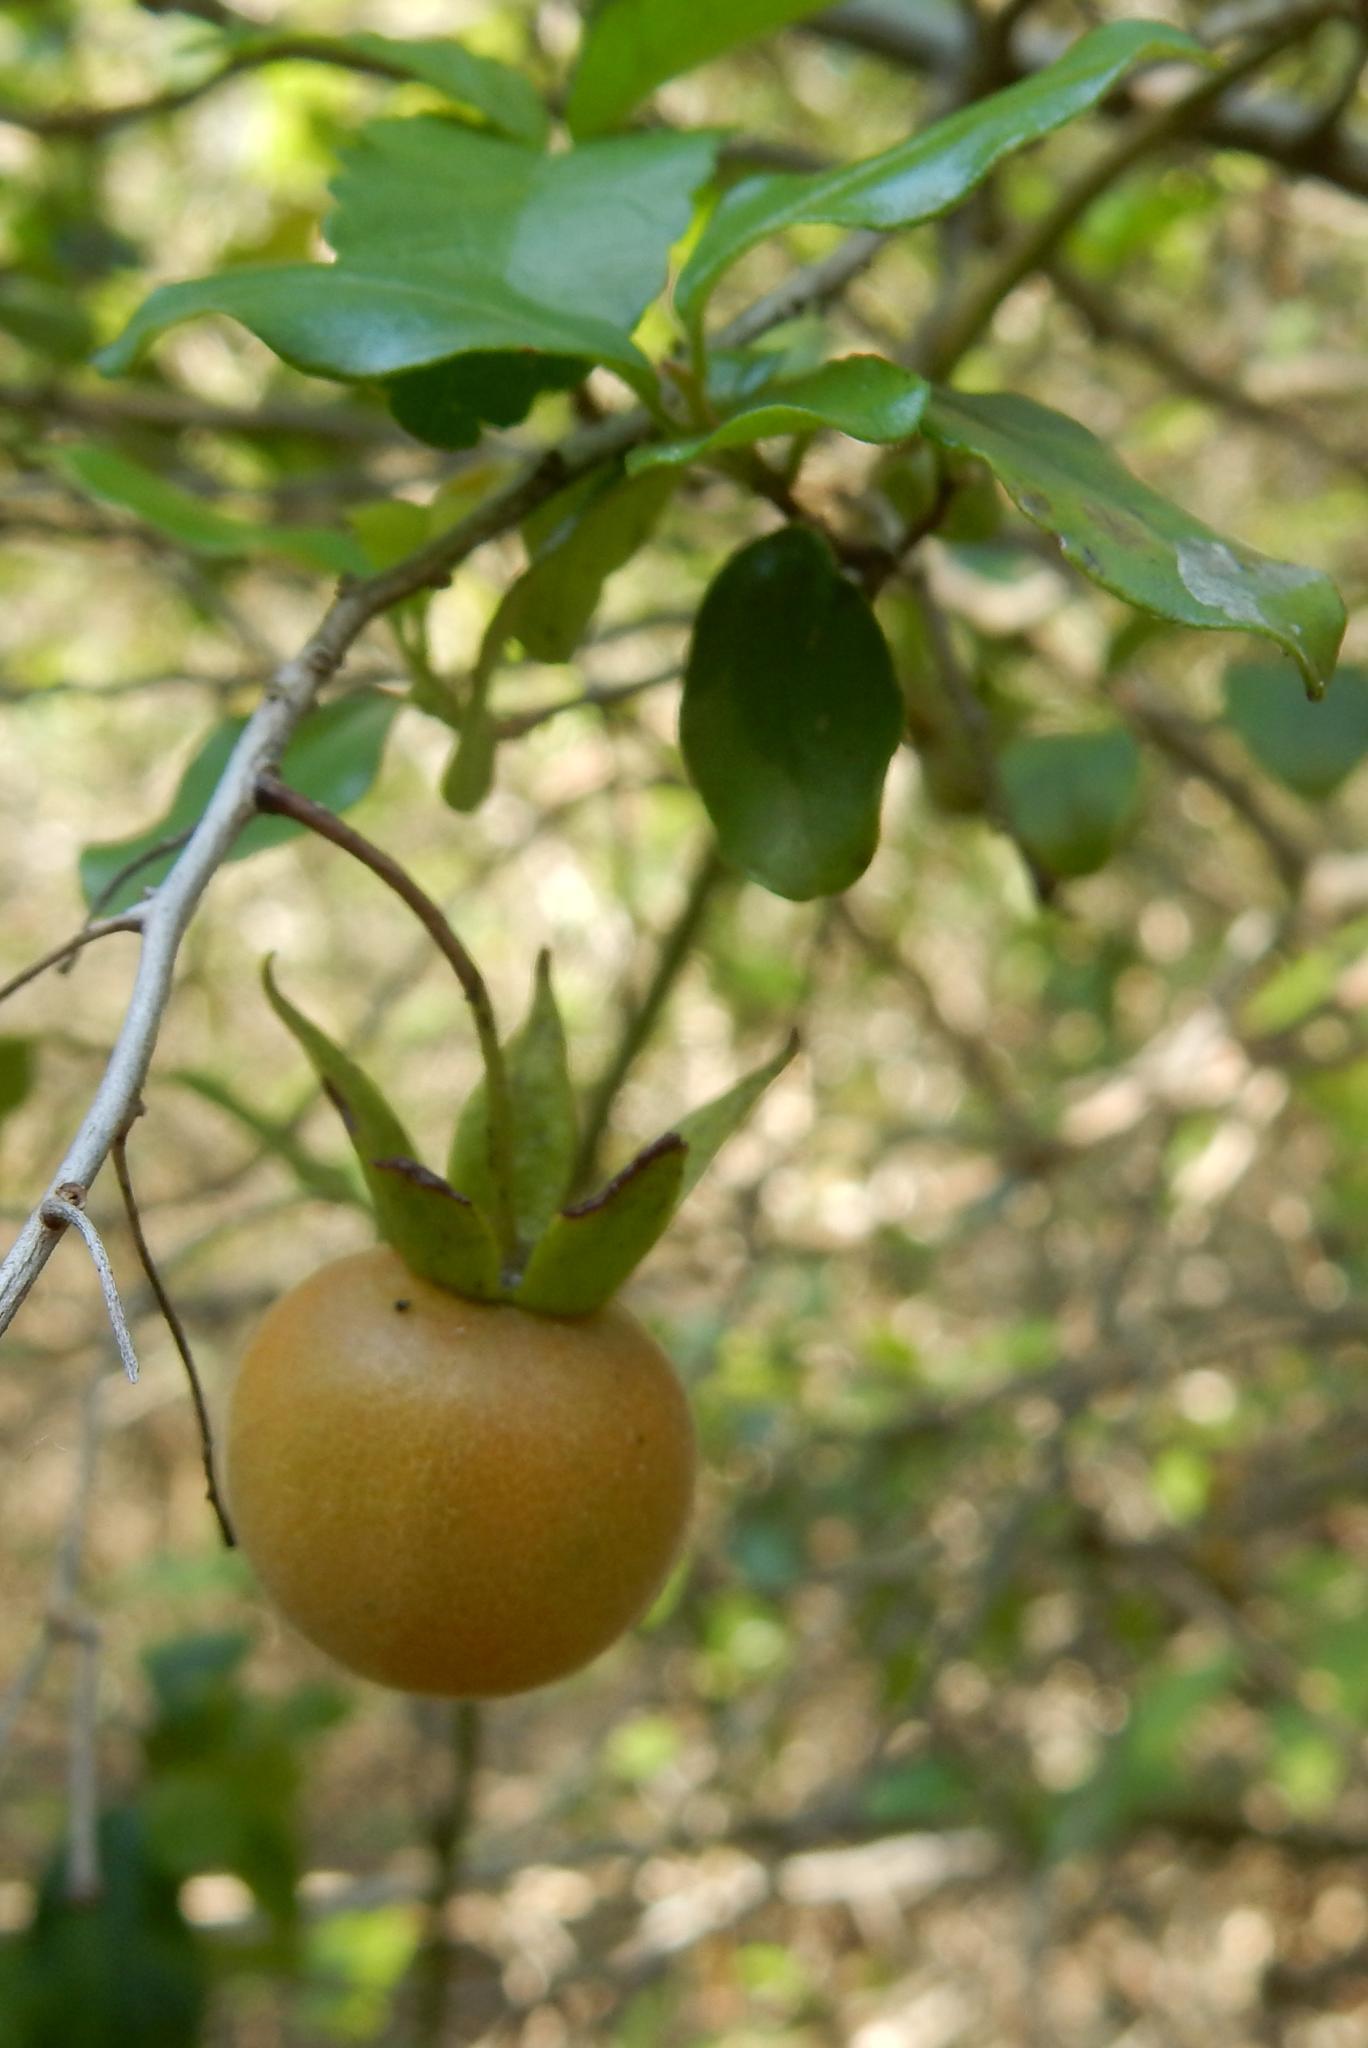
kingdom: Plantae
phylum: Tracheophyta
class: Magnoliopsida
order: Ericales
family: Ebenaceae
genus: Diospyros
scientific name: Diospyros simii
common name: Climbing star-apple
